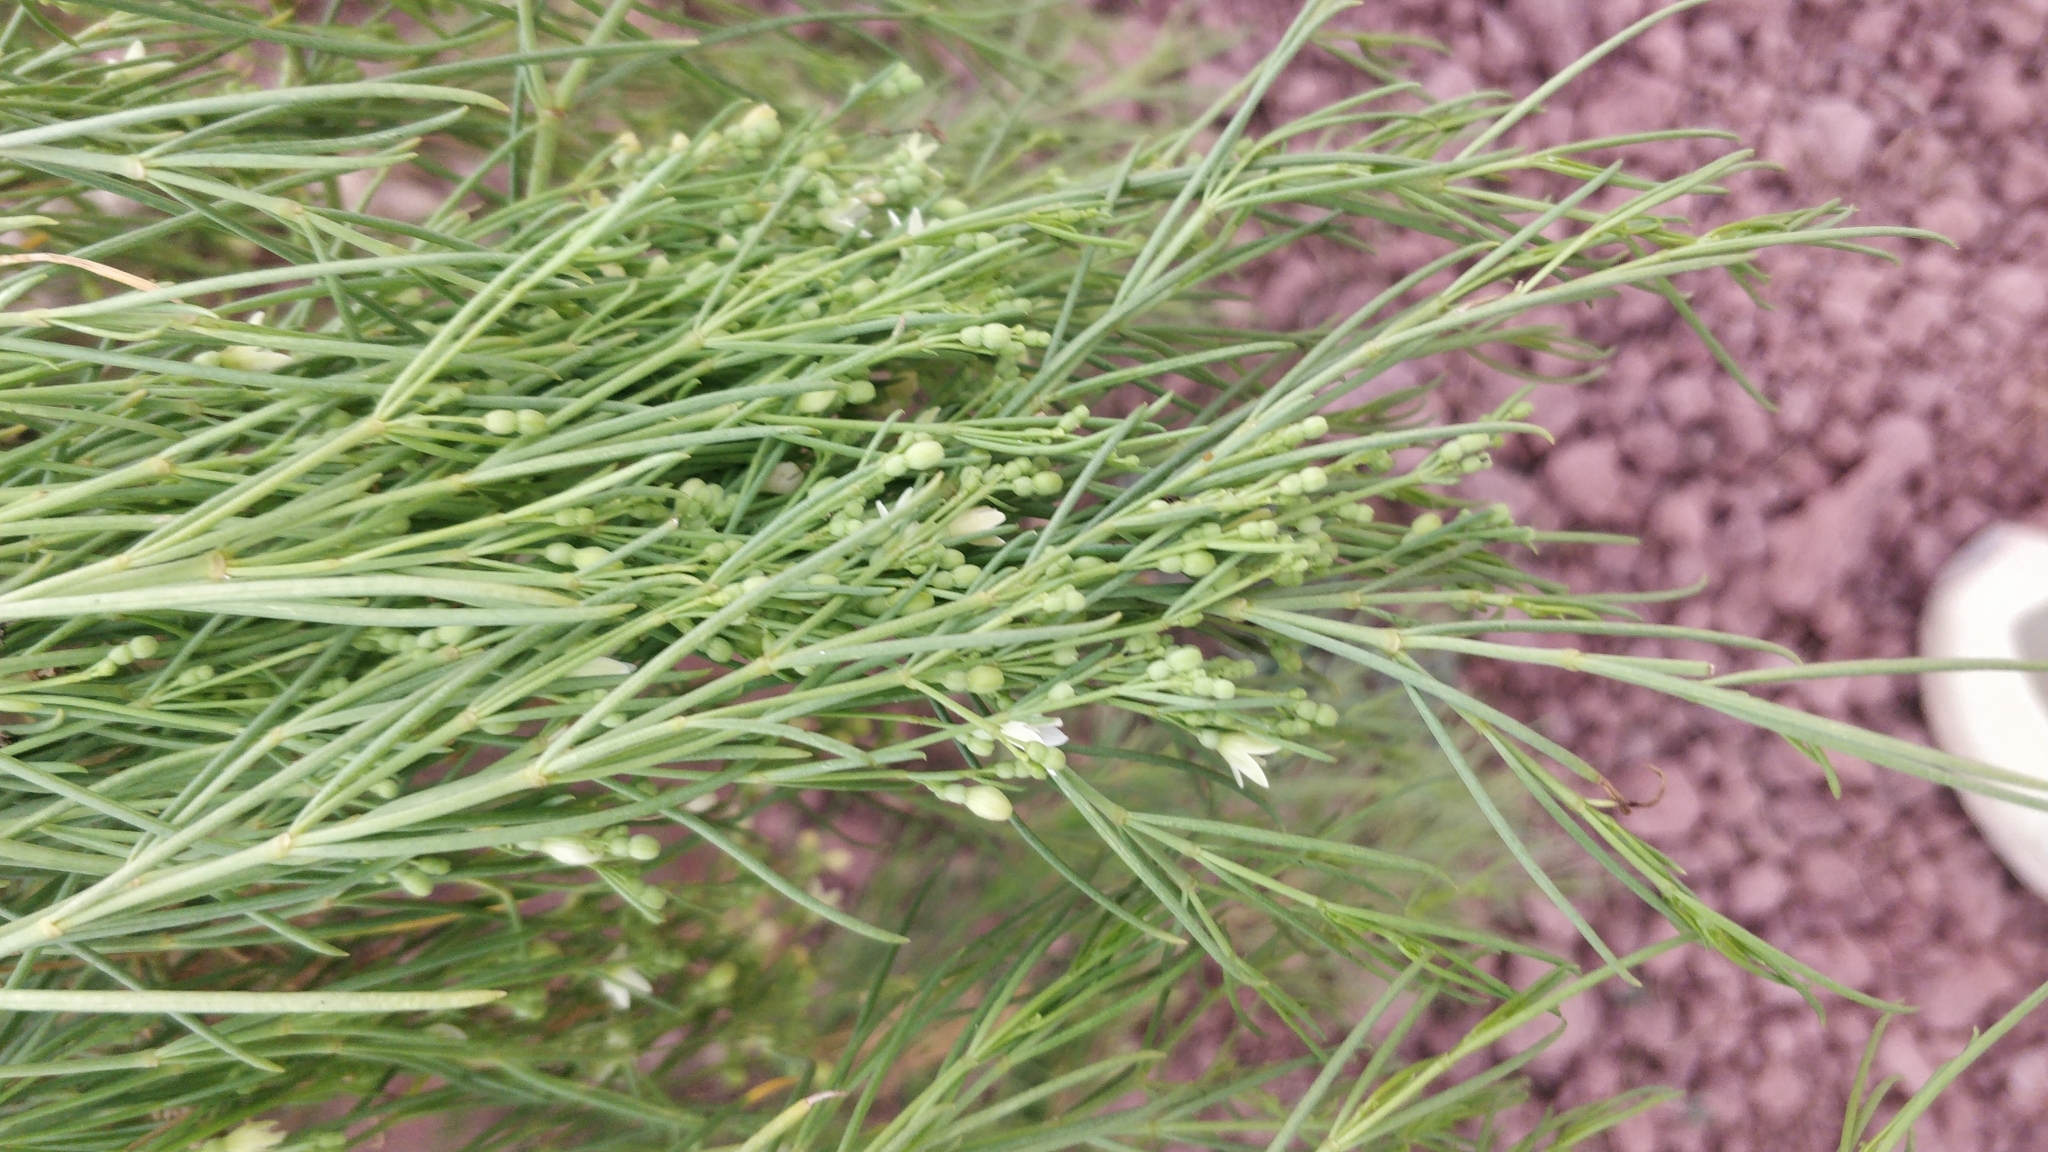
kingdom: Plantae
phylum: Tracheophyta
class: Magnoliopsida
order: Gentianales
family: Rubiaceae
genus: Plocama
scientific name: Plocama pendula
